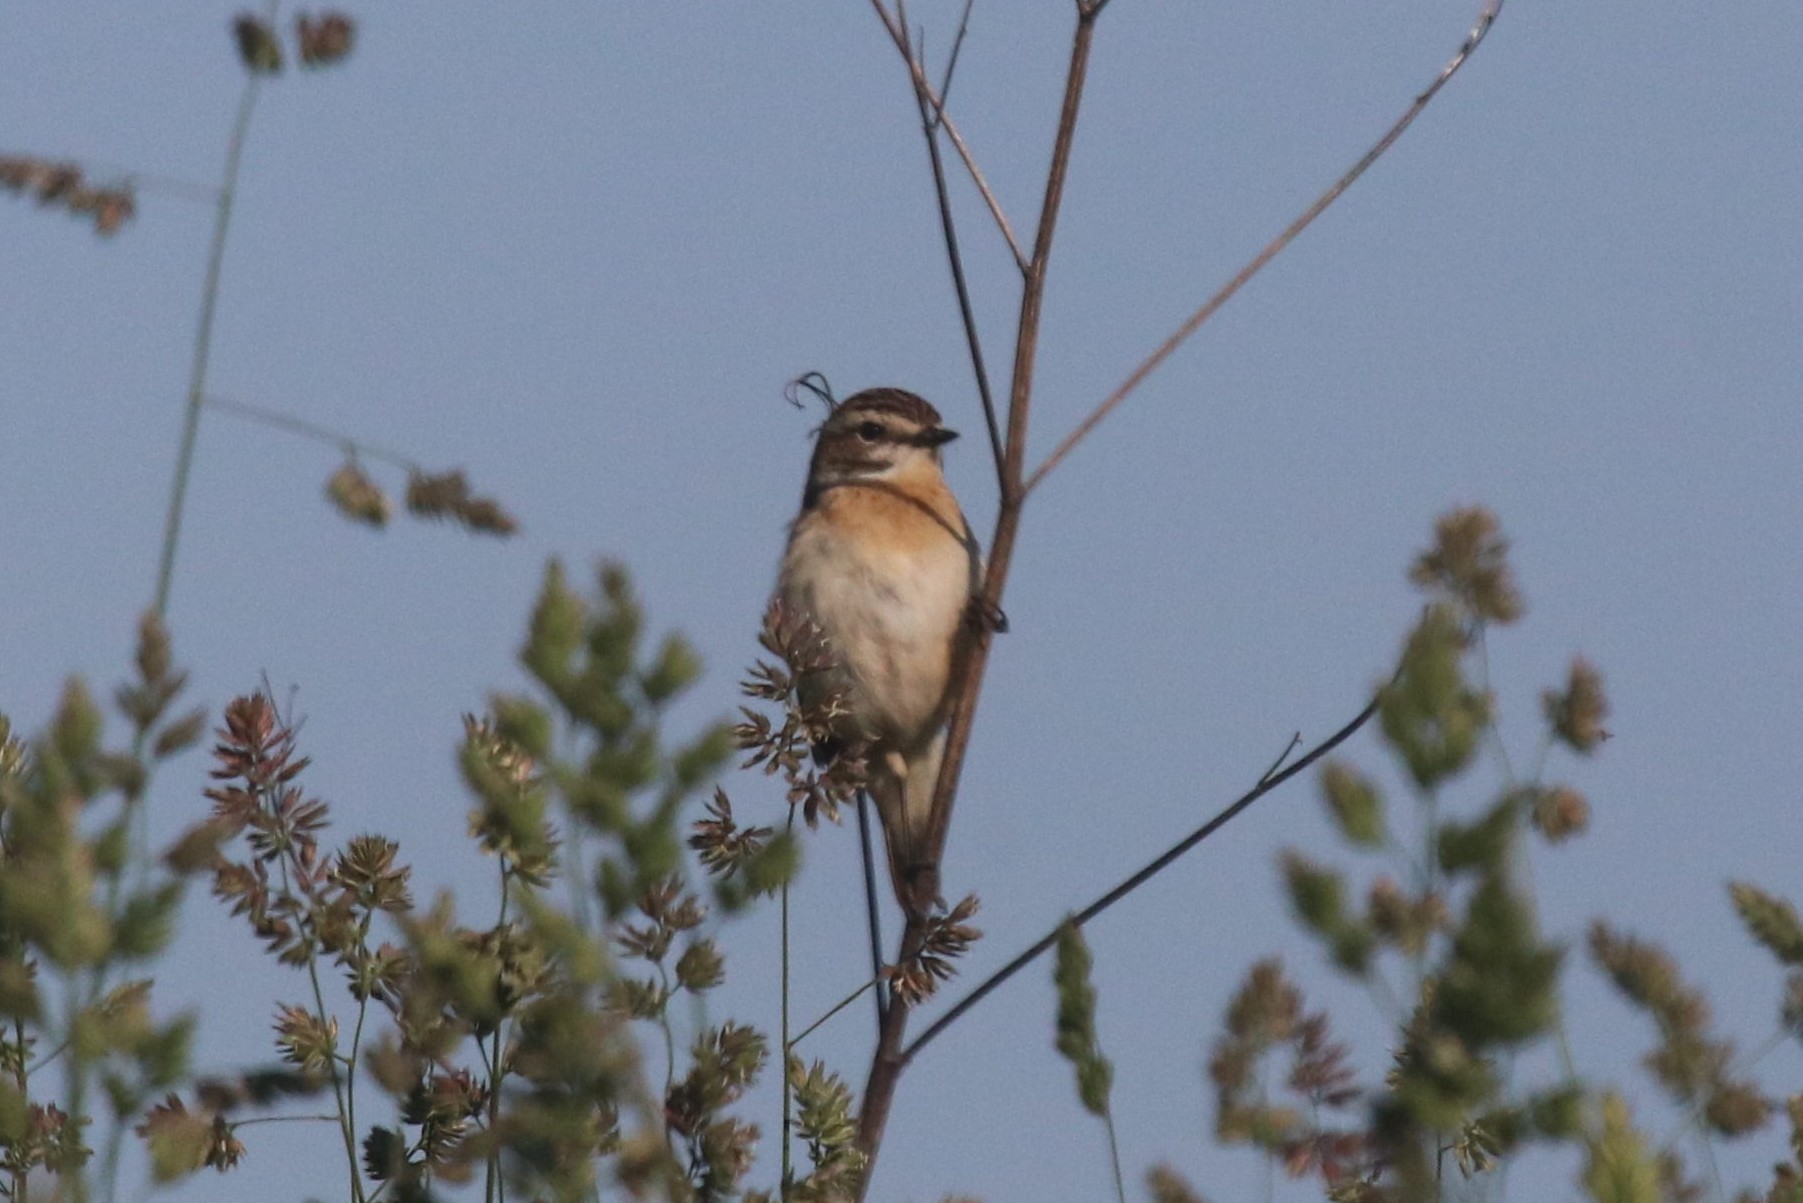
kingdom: Animalia
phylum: Chordata
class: Aves
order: Passeriformes
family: Muscicapidae
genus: Saxicola
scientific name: Saxicola rubetra
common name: Whinchat
